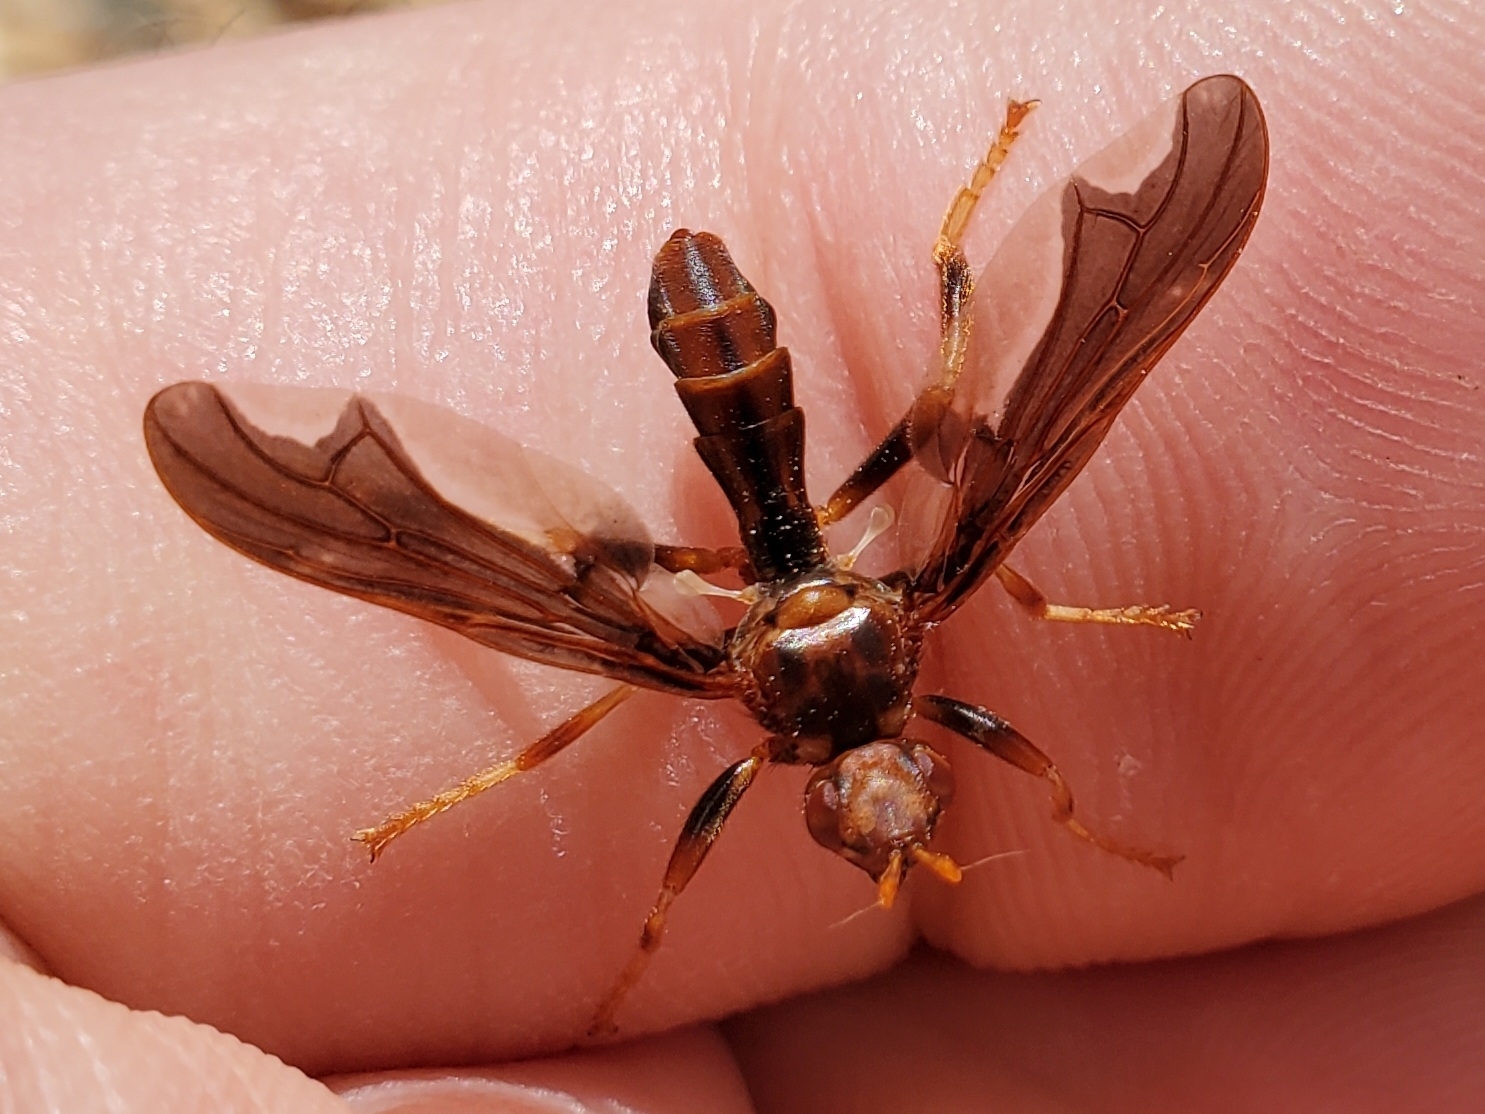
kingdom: Animalia
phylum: Arthropoda
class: Insecta
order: Diptera
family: Pyrgotidae
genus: Pyrgota
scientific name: Pyrgota undata
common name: Waved light fly
